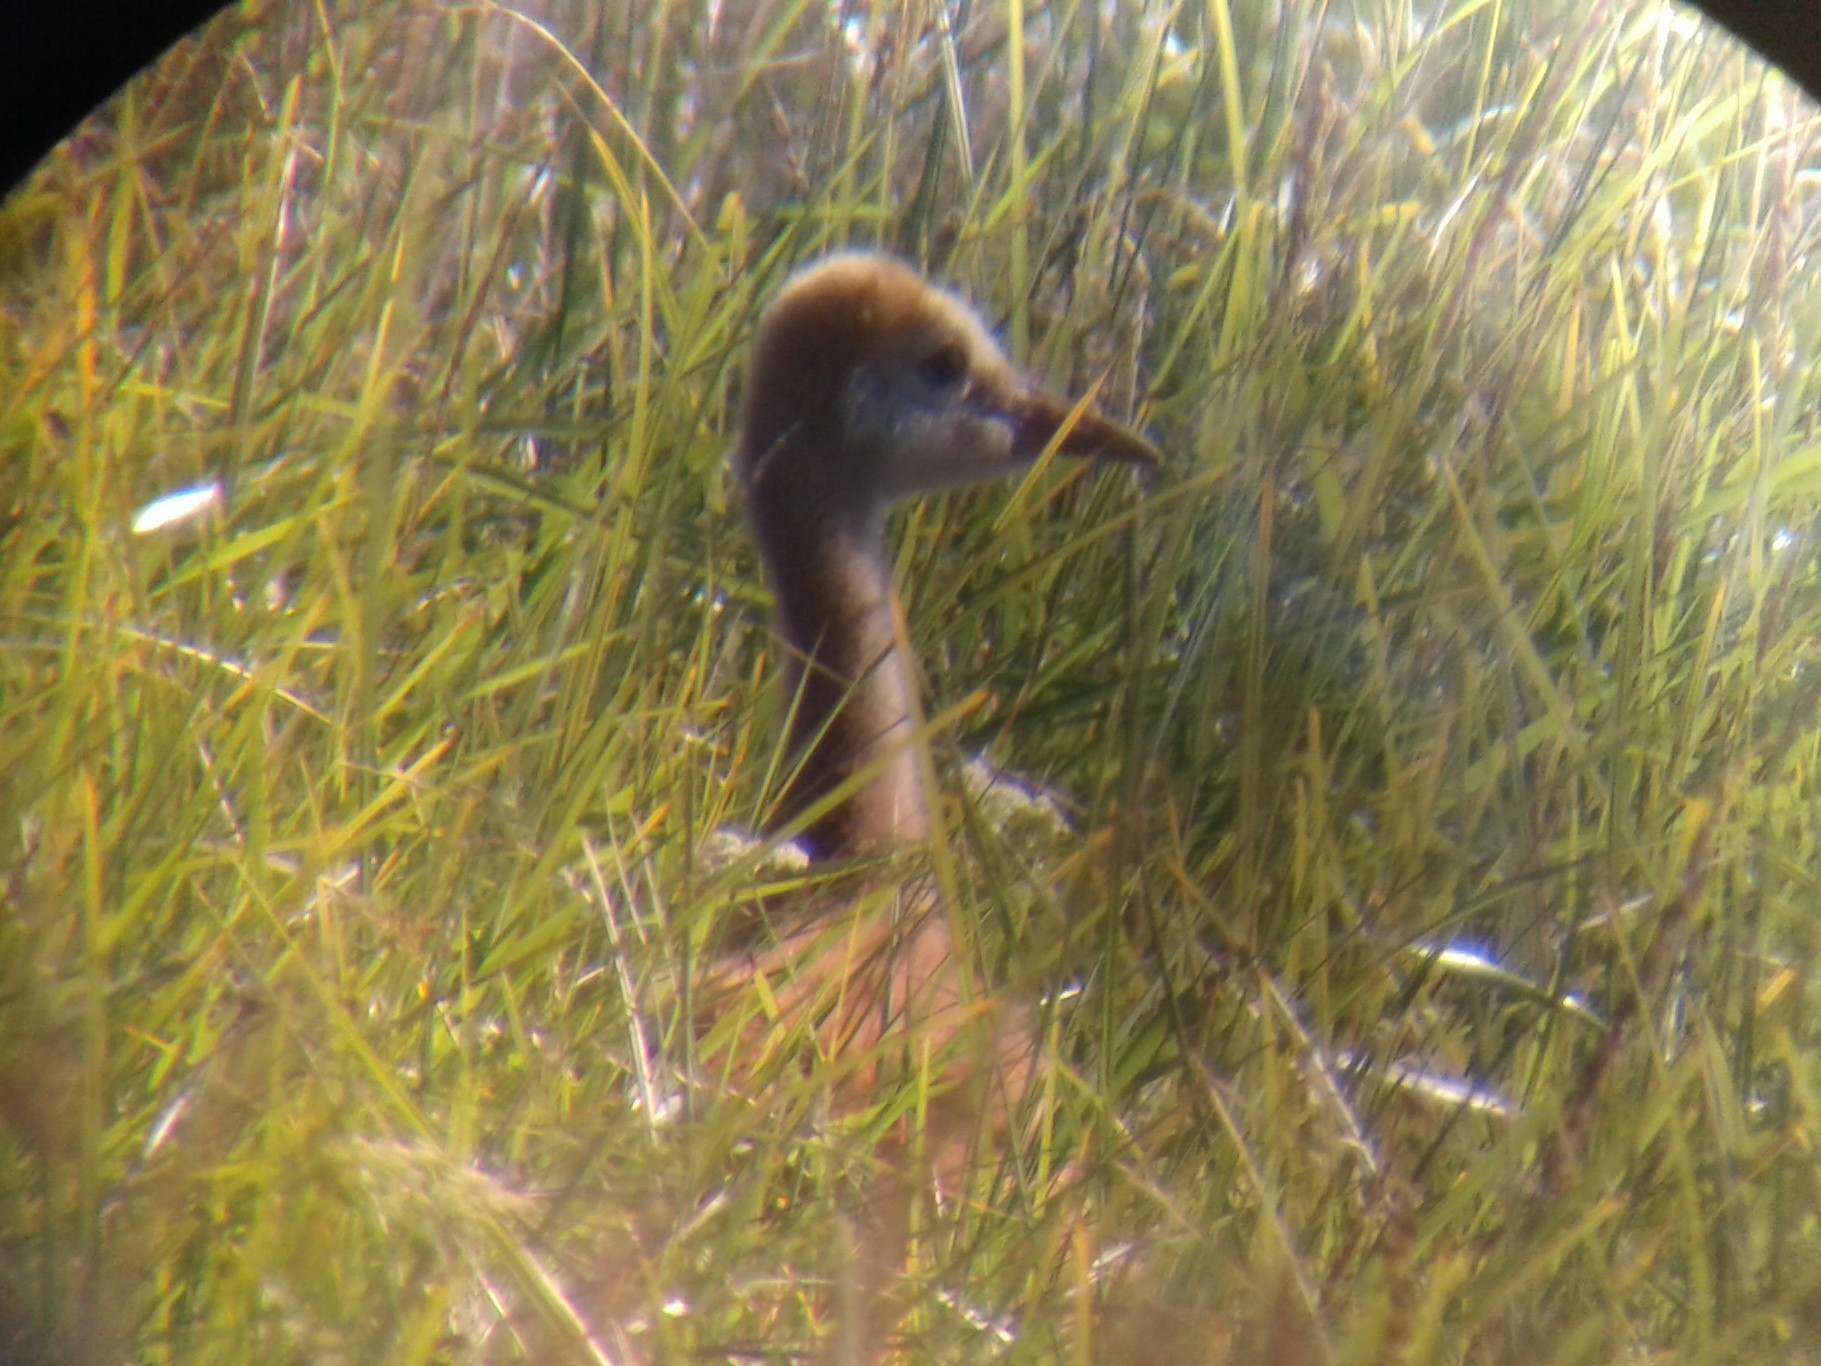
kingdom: Animalia
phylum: Chordata
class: Aves
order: Gruiformes
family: Gruidae
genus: Grus
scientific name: Grus canadensis
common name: Sandhill crane
